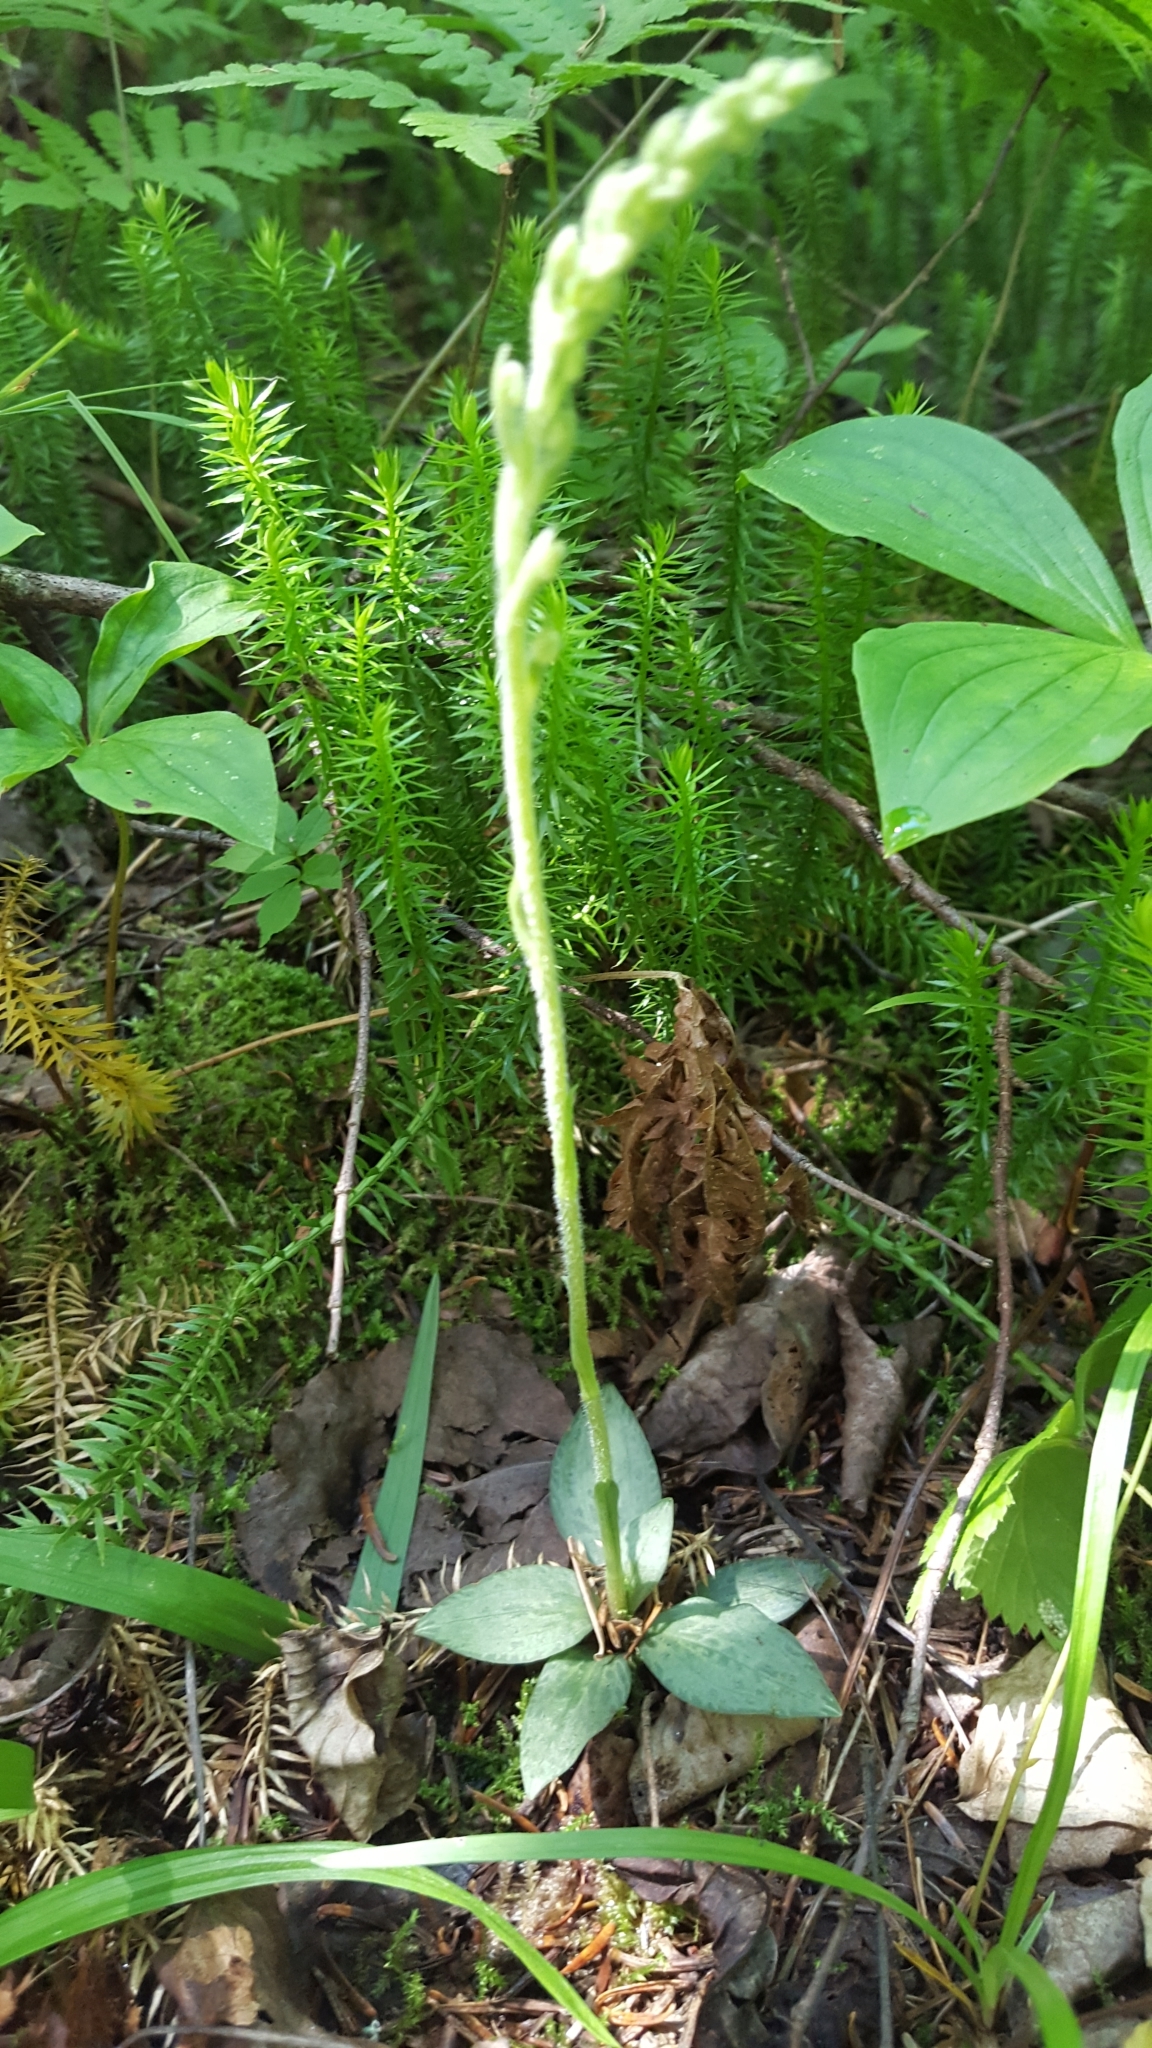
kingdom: Plantae
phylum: Tracheophyta
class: Liliopsida
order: Asparagales
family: Orchidaceae
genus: Goodyera
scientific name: Goodyera tesselata
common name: Checkered rattlesnake-plantain
